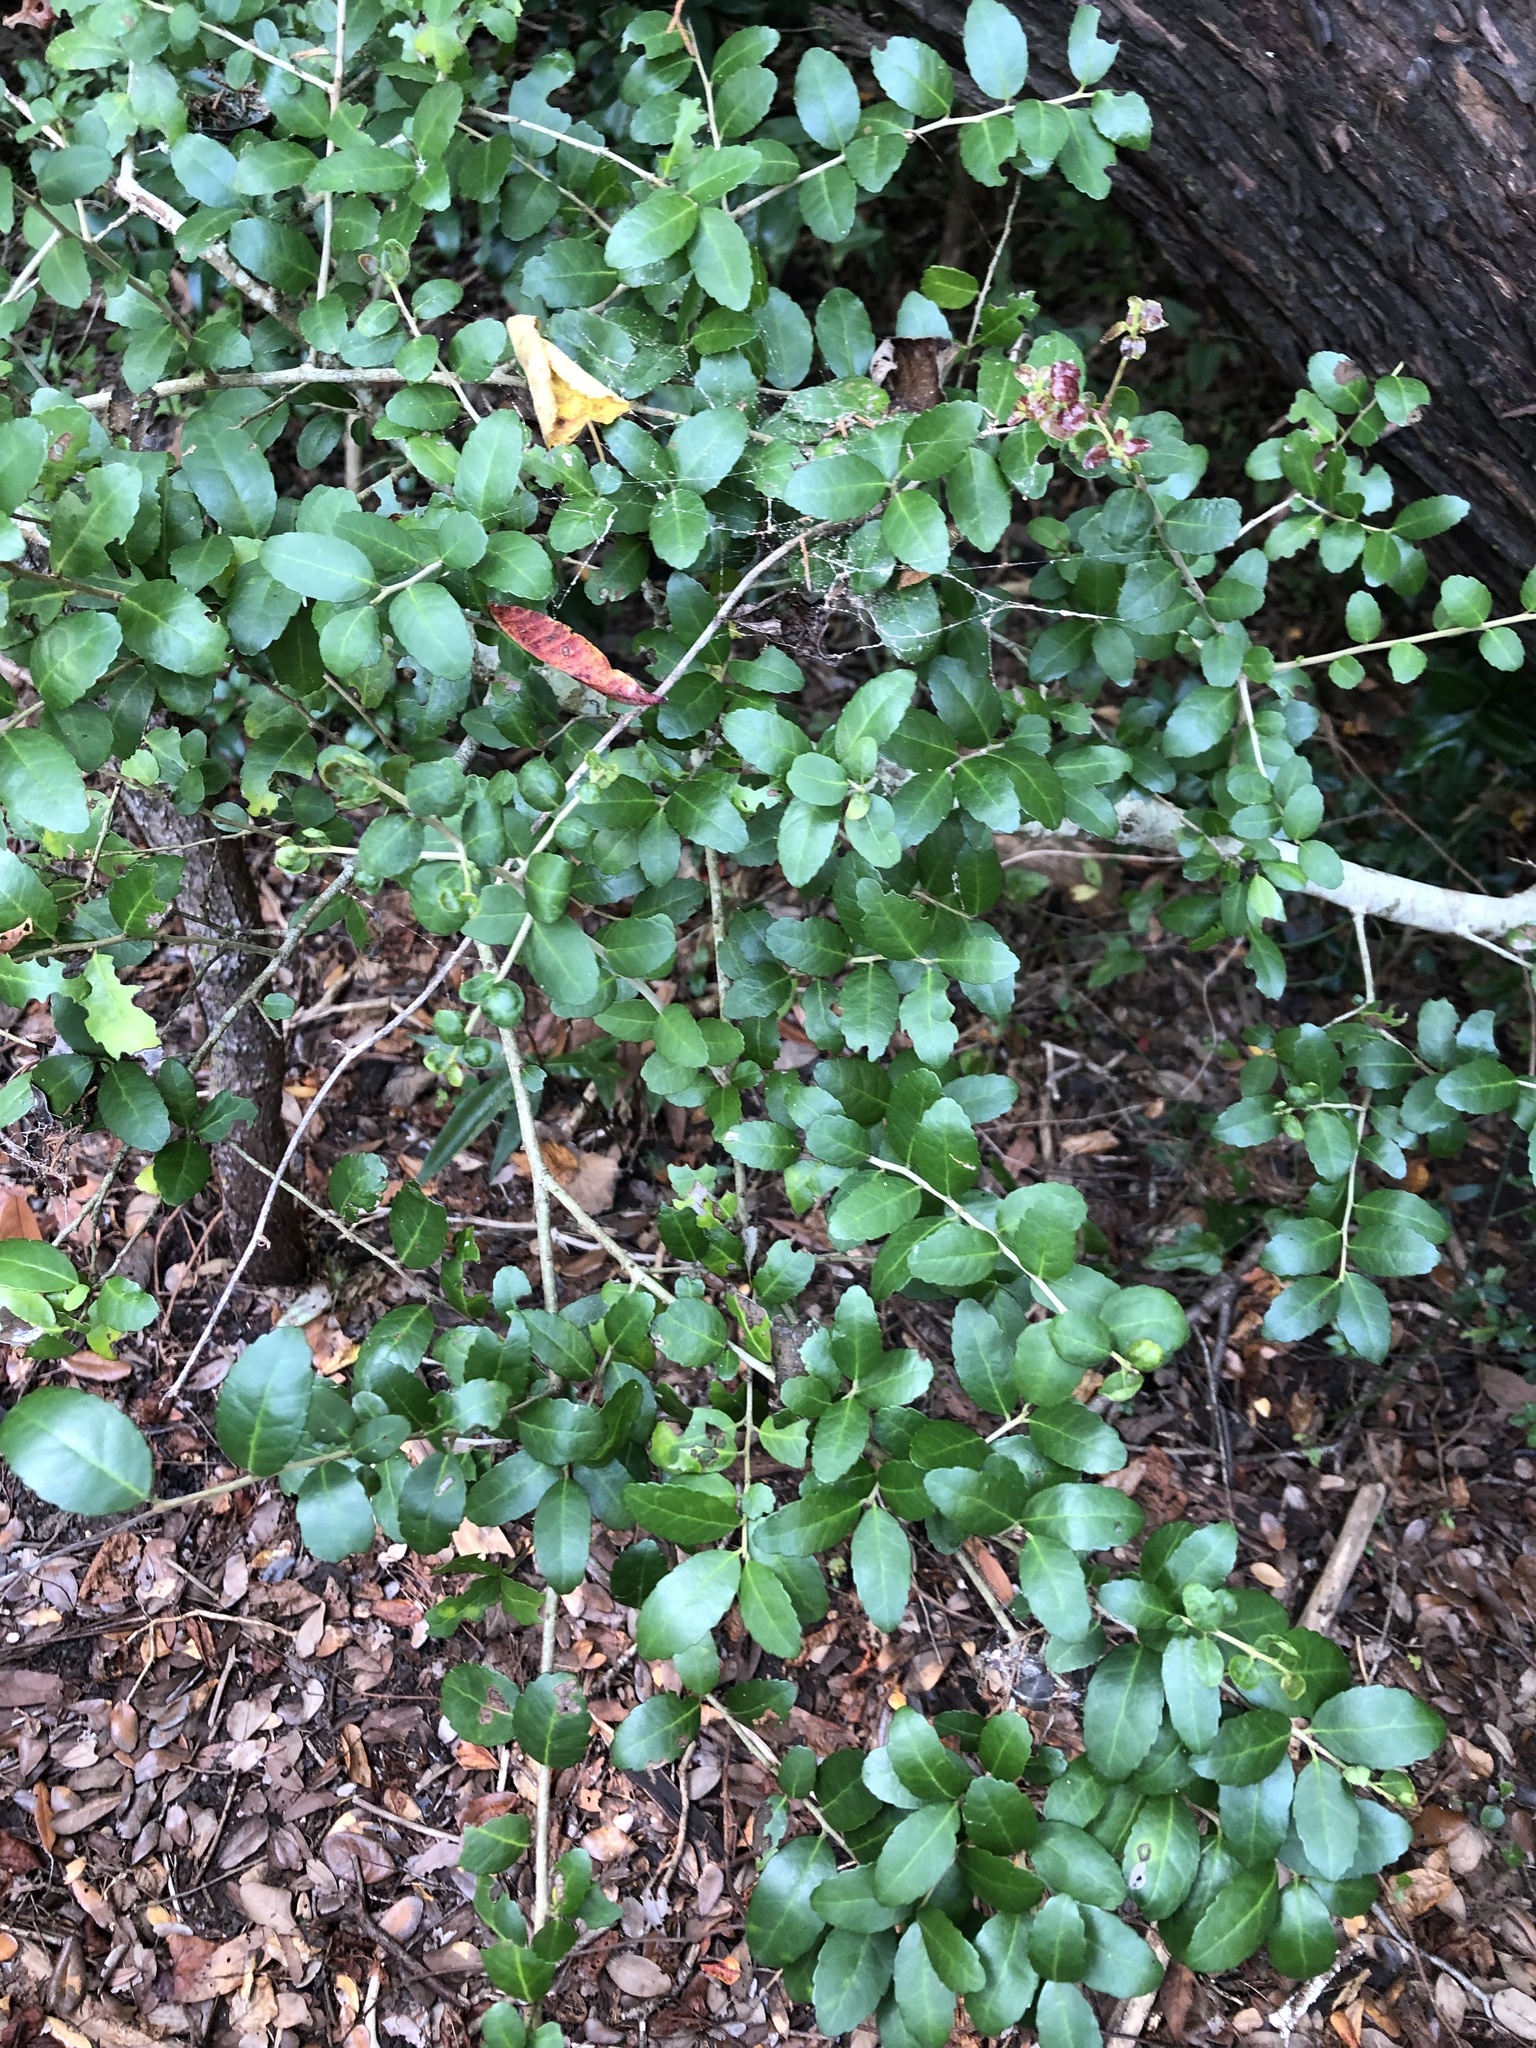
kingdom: Plantae
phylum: Tracheophyta
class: Magnoliopsida
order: Aquifoliales
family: Aquifoliaceae
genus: Ilex
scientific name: Ilex vomitoria
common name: Yaupon holly
